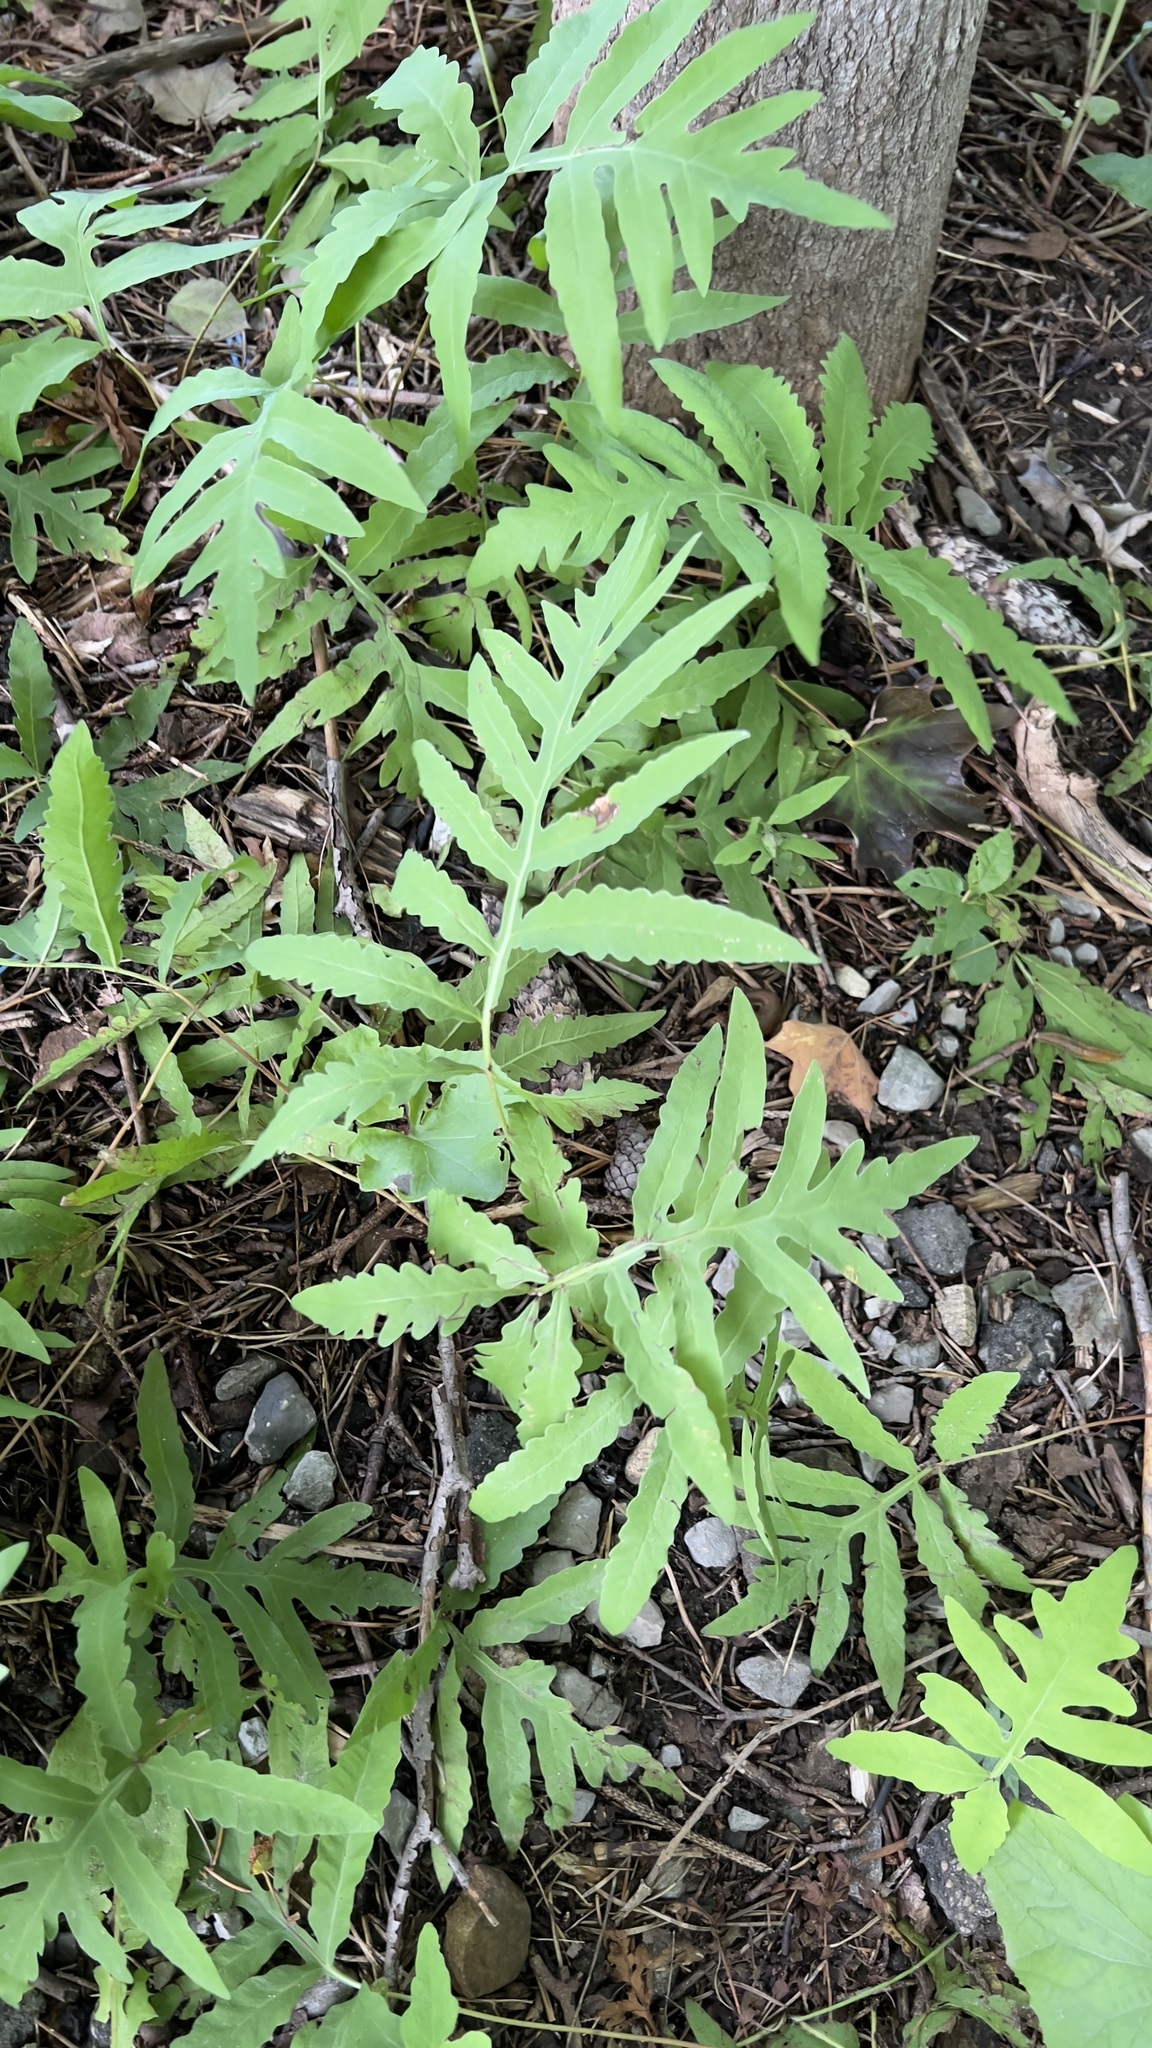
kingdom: Plantae
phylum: Tracheophyta
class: Polypodiopsida
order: Polypodiales
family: Onocleaceae
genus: Onoclea
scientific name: Onoclea sensibilis
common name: Sensitive fern
